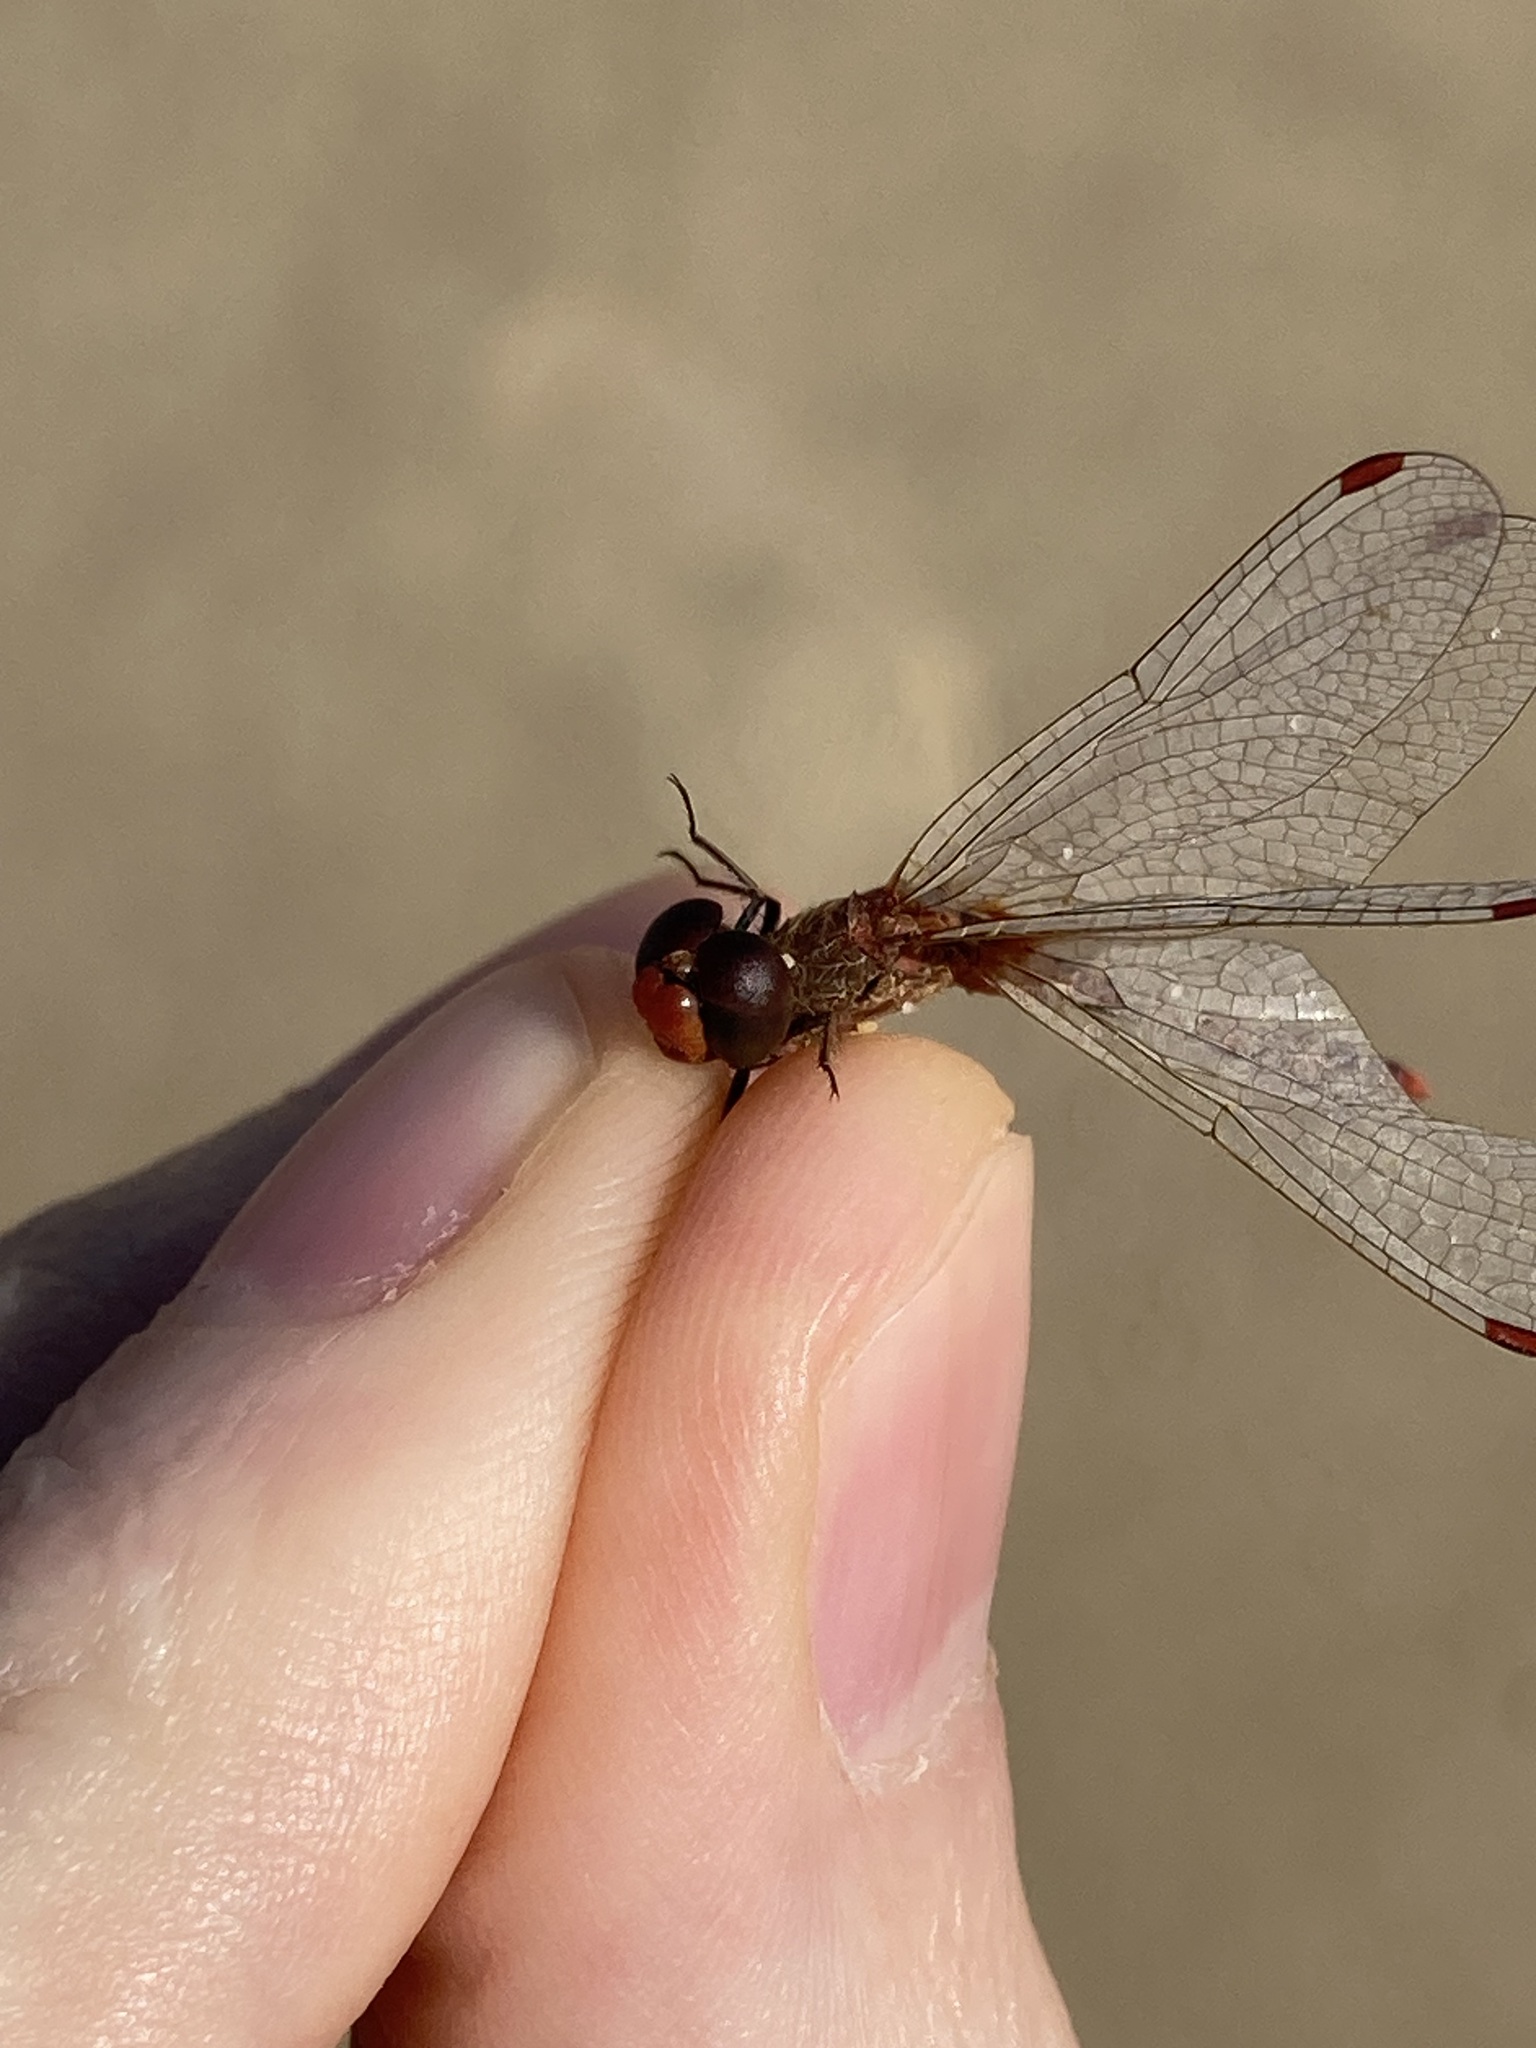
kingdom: Animalia
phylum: Arthropoda
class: Insecta
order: Odonata
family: Libellulidae
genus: Diplacodes
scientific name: Diplacodes bipunctata
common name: Red percher dragonfly
